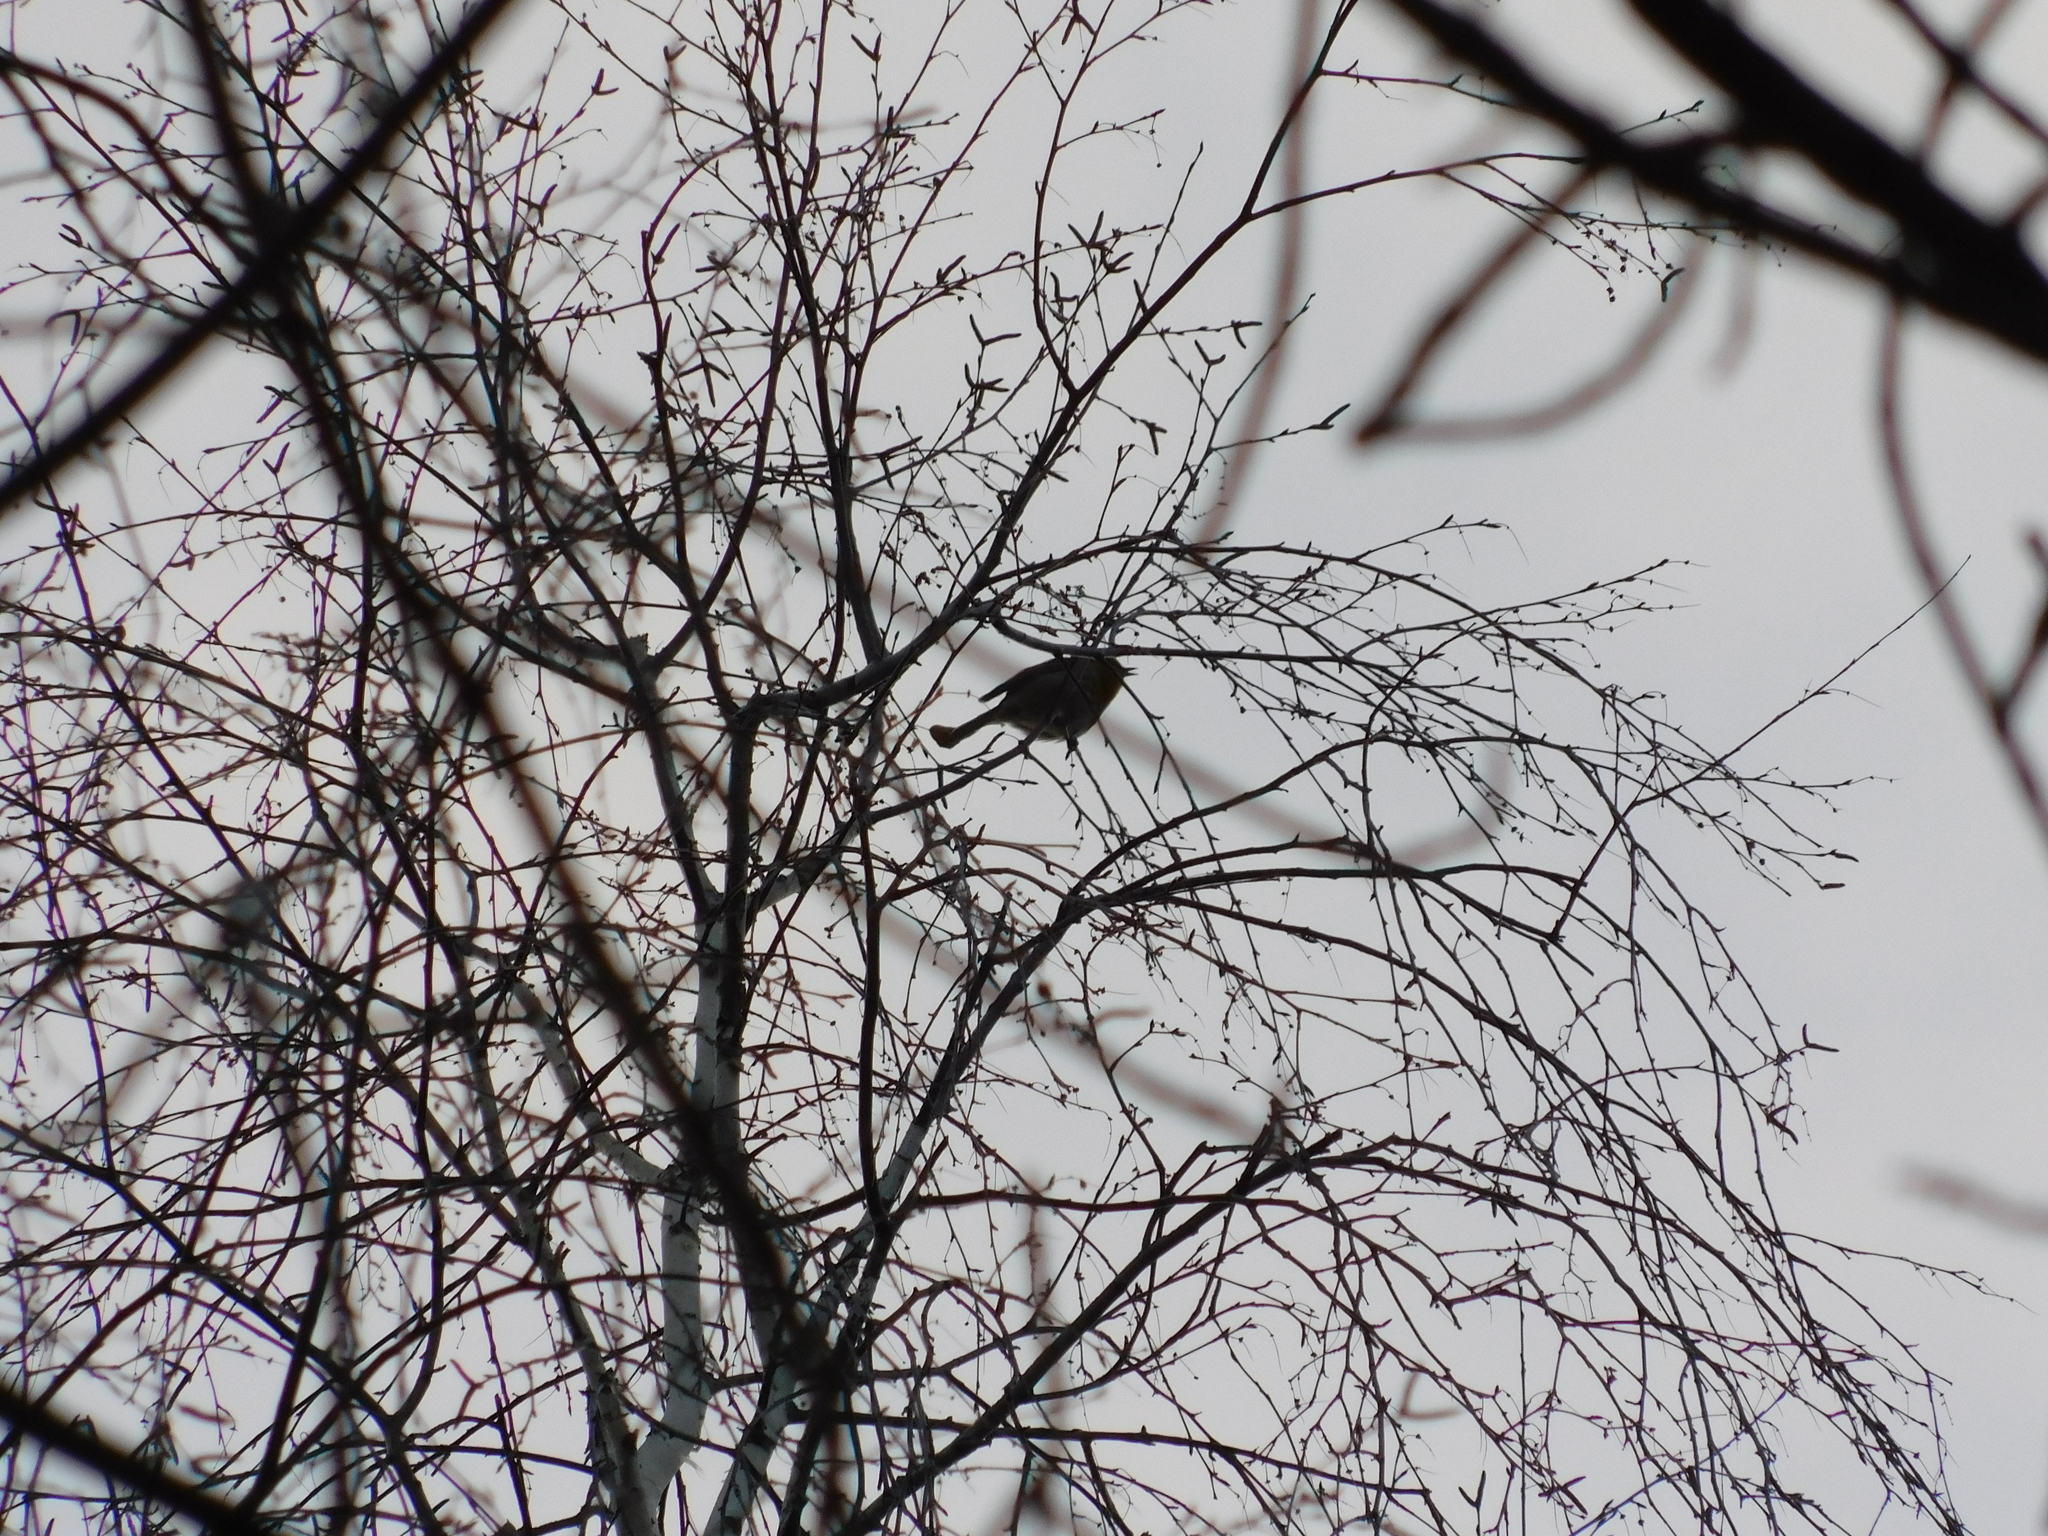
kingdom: Animalia
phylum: Chordata
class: Aves
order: Passeriformes
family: Muscicapidae
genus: Erithacus
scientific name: Erithacus rubecula
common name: European robin
